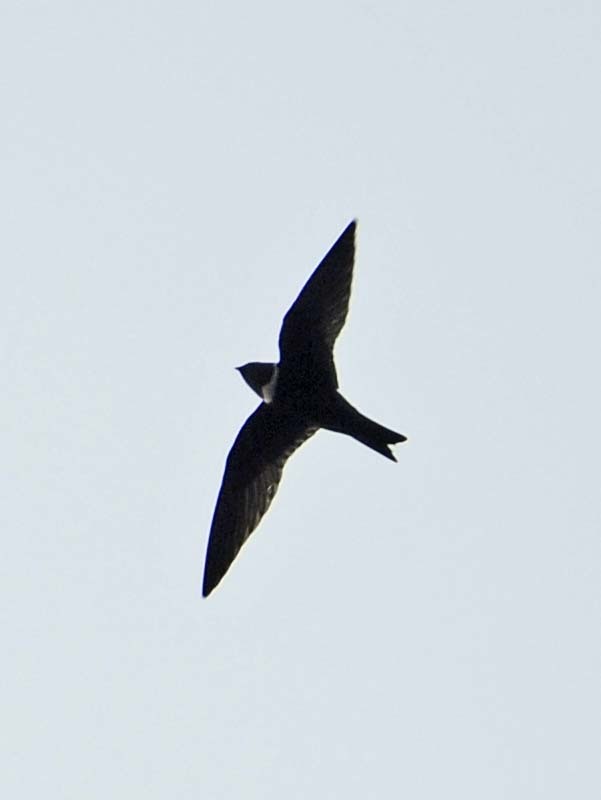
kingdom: Animalia
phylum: Chordata
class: Aves
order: Apodiformes
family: Apodidae
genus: Streptoprocne
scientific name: Streptoprocne zonaris
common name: White-collared swift
